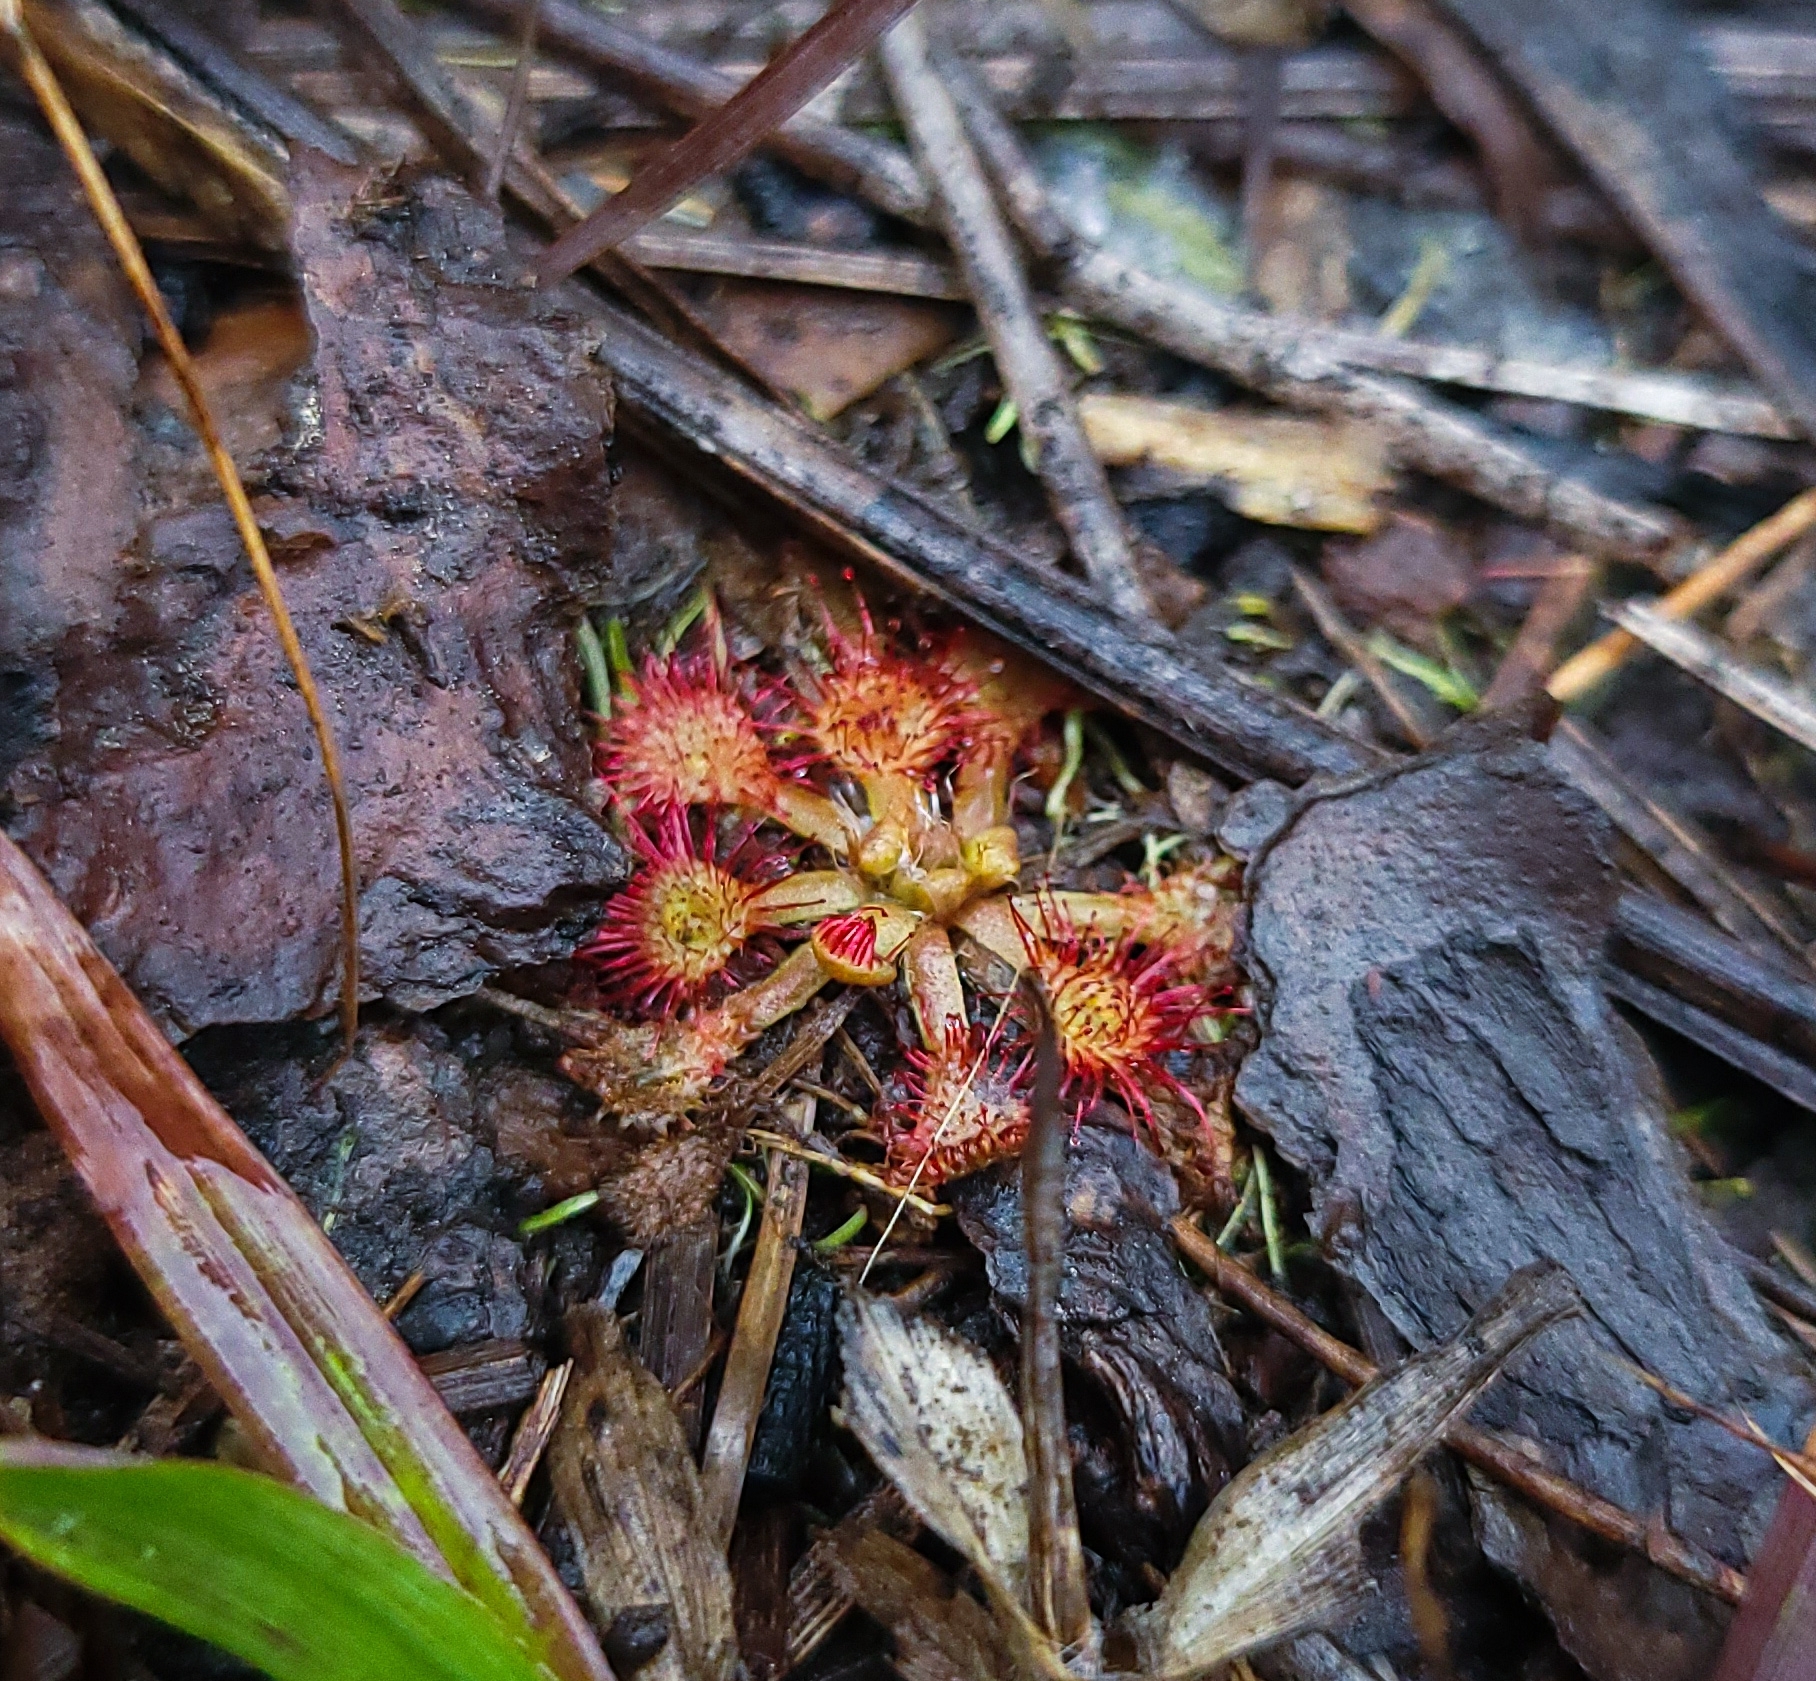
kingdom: Plantae
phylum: Tracheophyta
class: Magnoliopsida
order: Caryophyllales
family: Droseraceae
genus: Drosera
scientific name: Drosera capillaris
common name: Pink sundew
